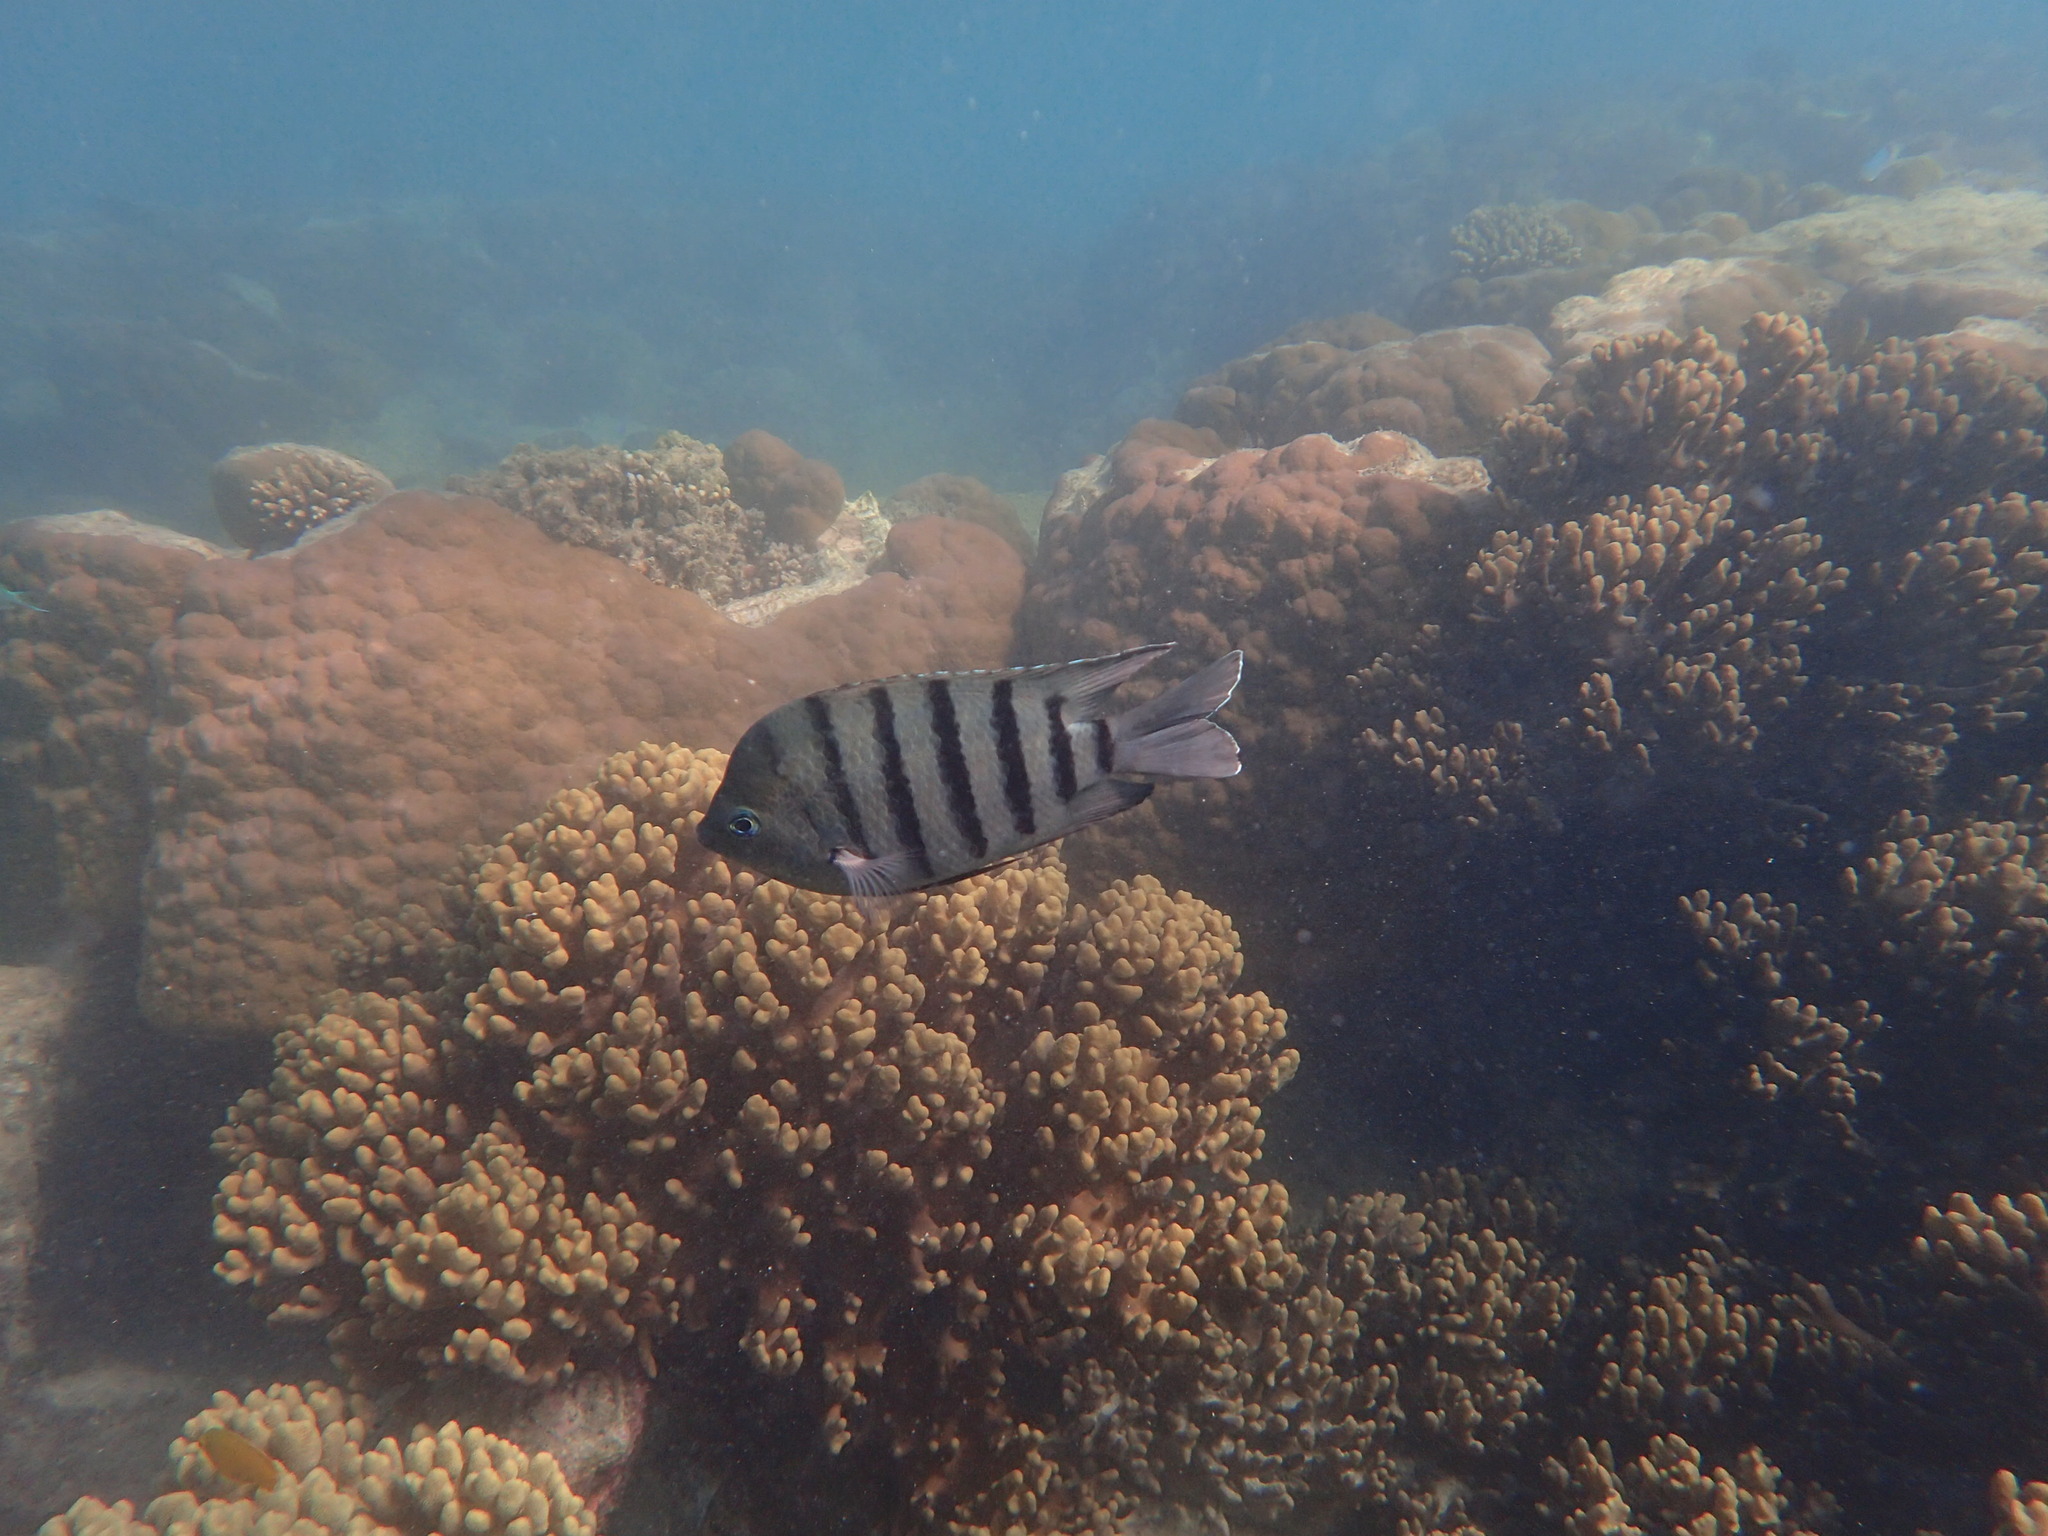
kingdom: Animalia
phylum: Chordata
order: Perciformes
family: Pomacentridae
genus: Abudefduf
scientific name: Abudefduf bengalensis
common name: Bengal sergeant
